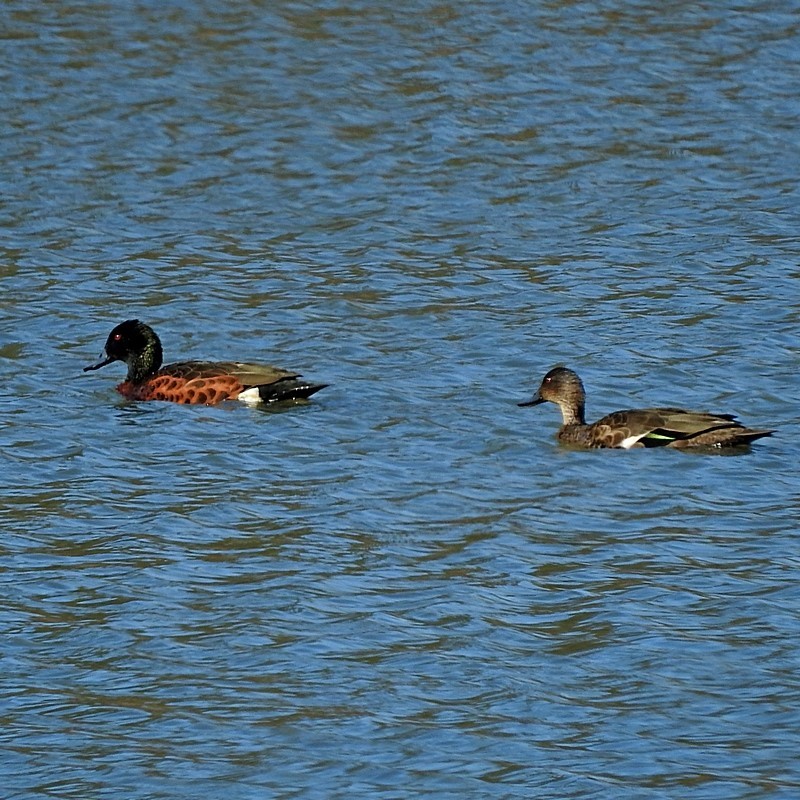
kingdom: Animalia
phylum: Chordata
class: Aves
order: Anseriformes
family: Anatidae
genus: Anas
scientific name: Anas castanea
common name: Chestnut teal
